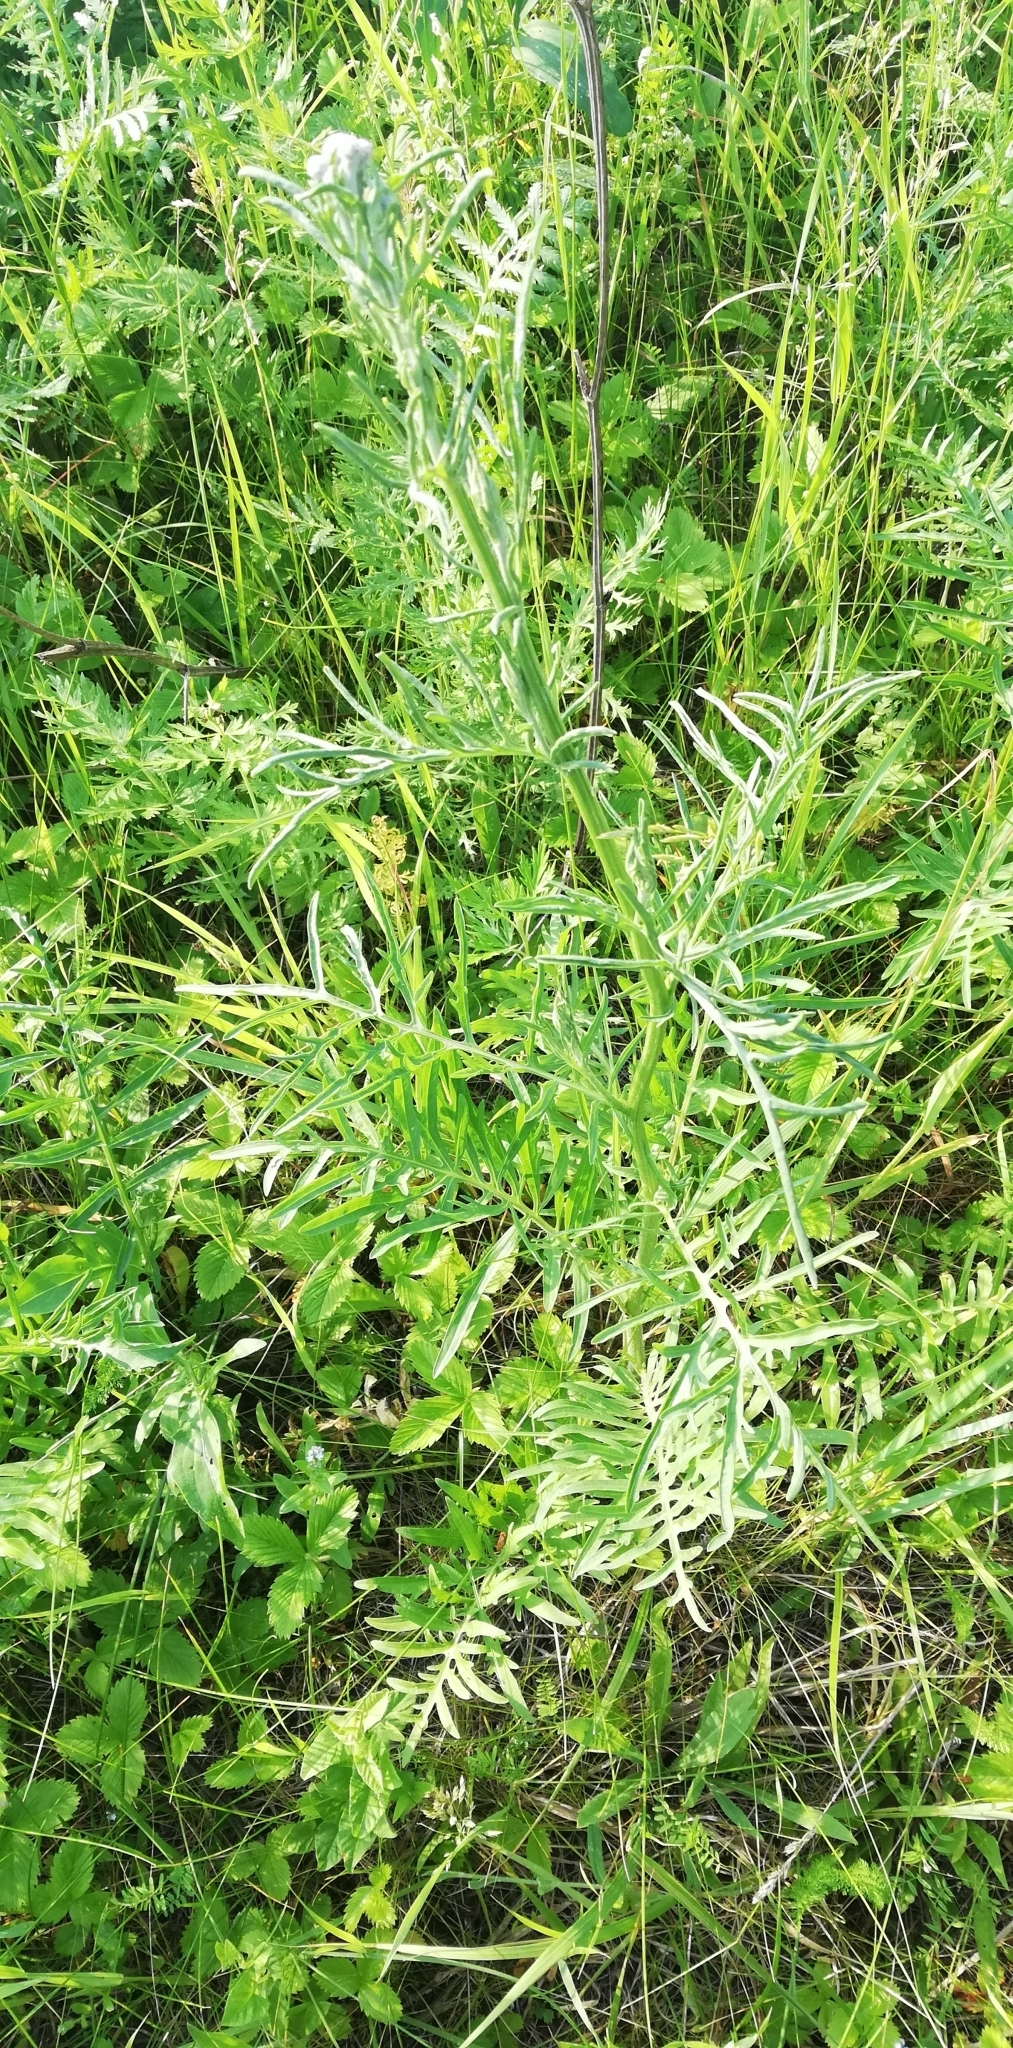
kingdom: Plantae
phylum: Tracheophyta
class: Magnoliopsida
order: Asterales
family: Asteraceae
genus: Centaurea
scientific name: Centaurea scabiosa
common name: Greater knapweed
